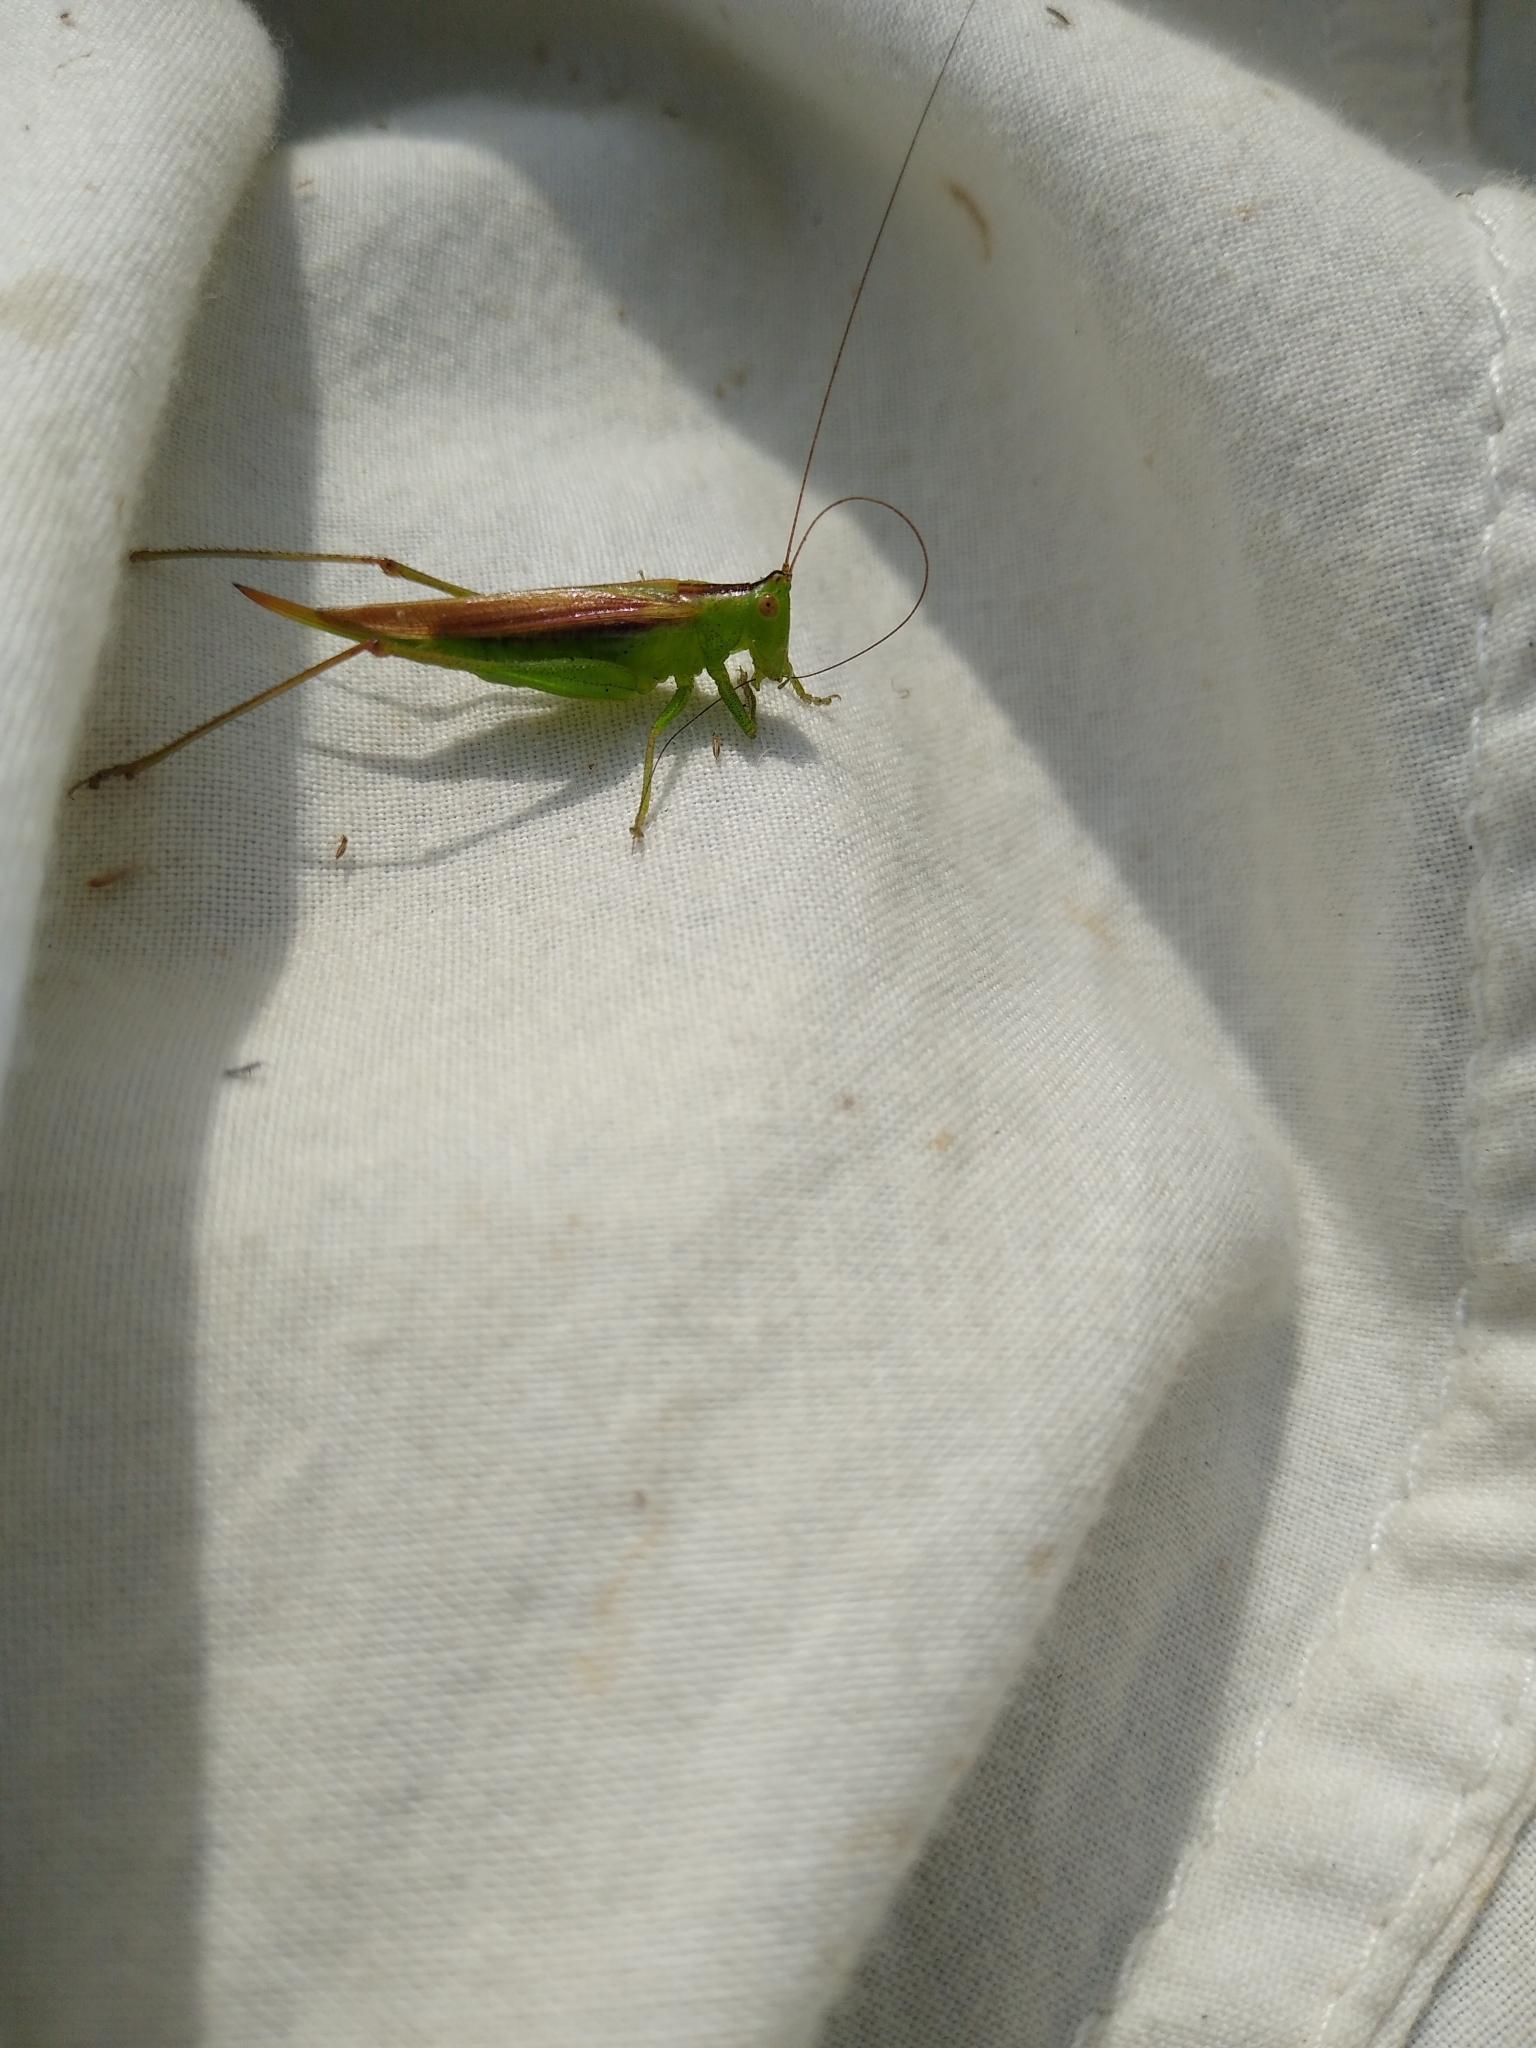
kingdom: Animalia
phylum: Arthropoda
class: Insecta
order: Orthoptera
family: Tettigoniidae
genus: Conocephalus
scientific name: Conocephalus fasciatus
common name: Slender meadow katydid
